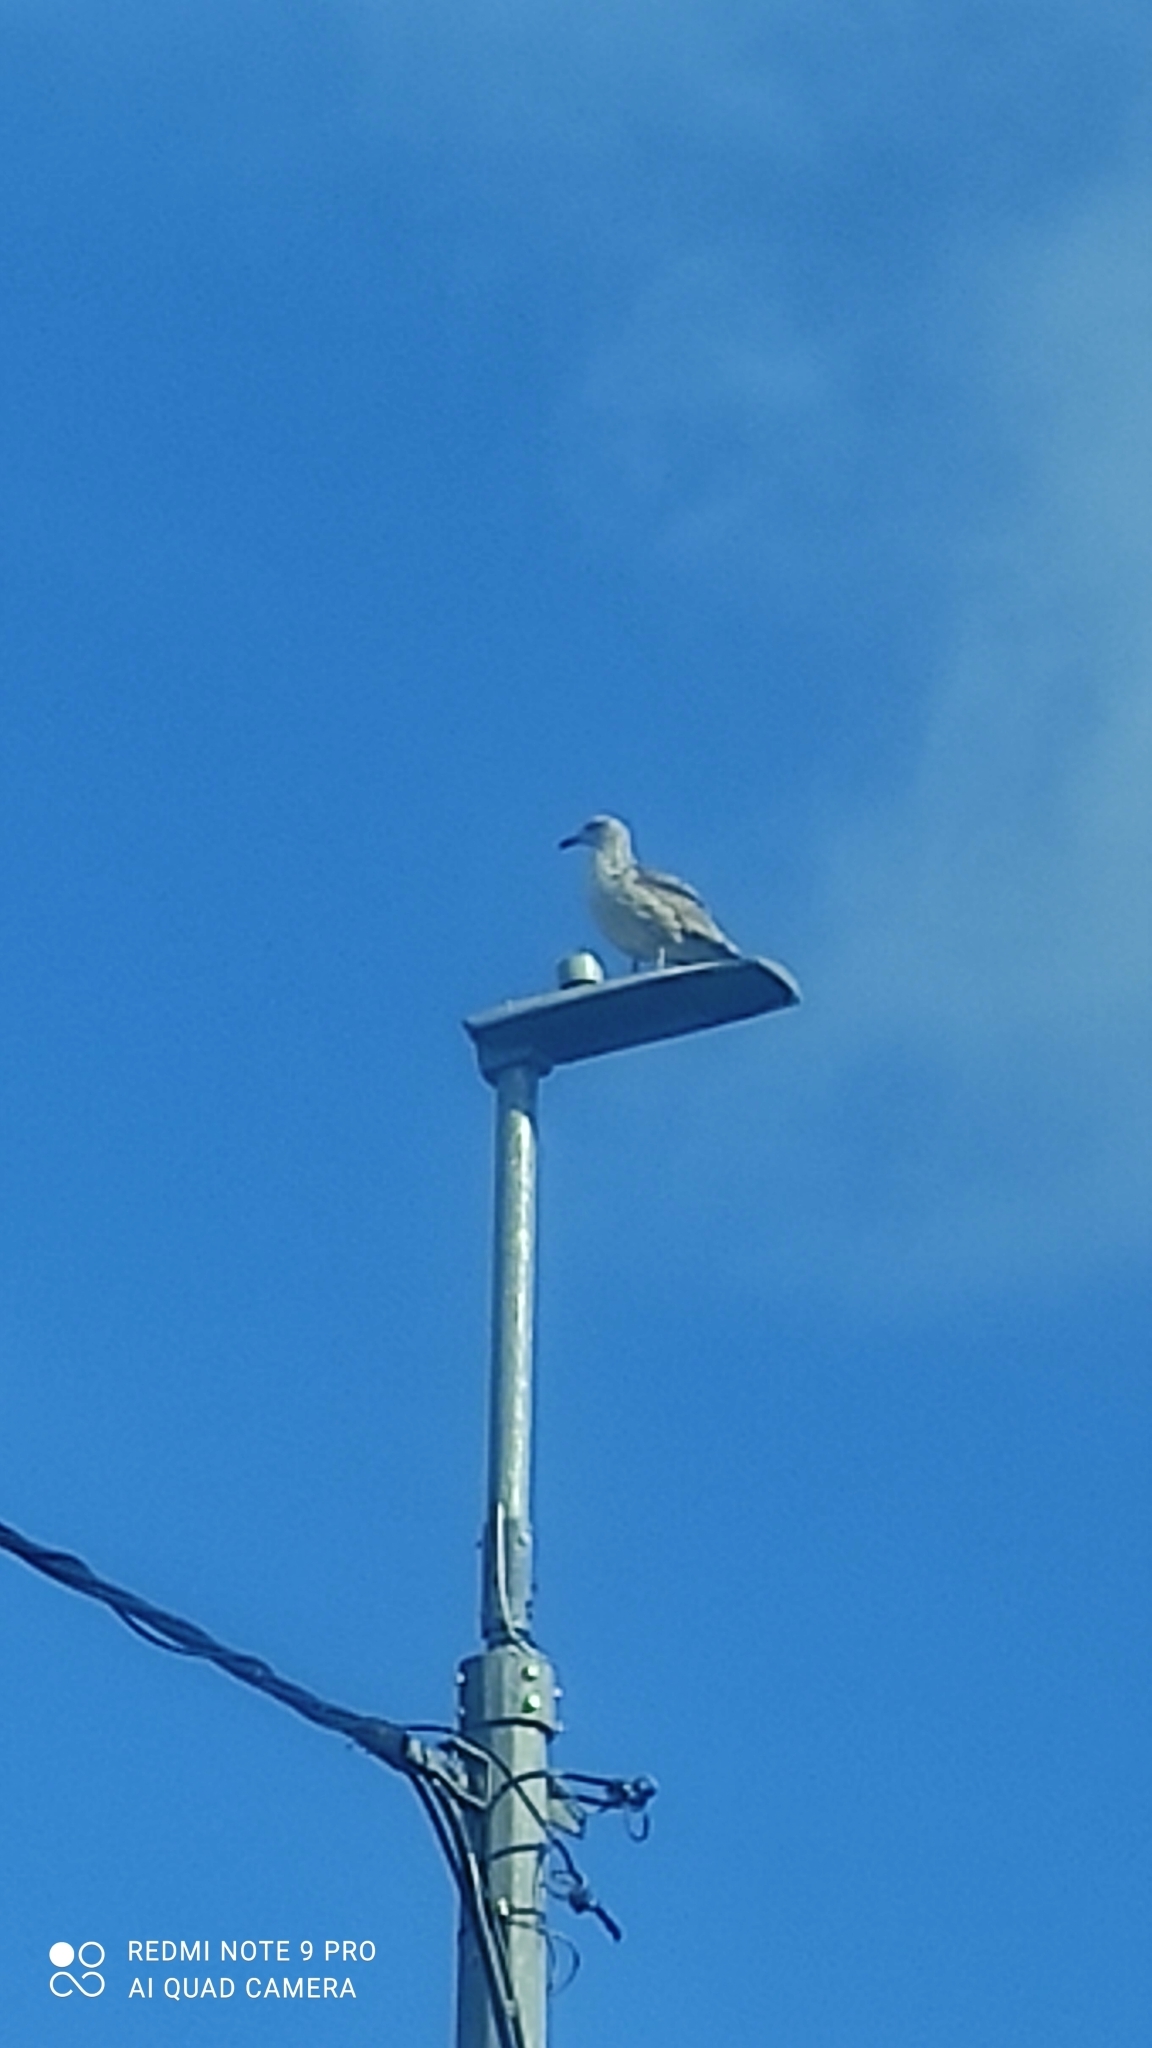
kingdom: Animalia
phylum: Chordata
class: Aves
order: Charadriiformes
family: Laridae
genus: Larus
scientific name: Larus argentatus
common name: Herring gull
